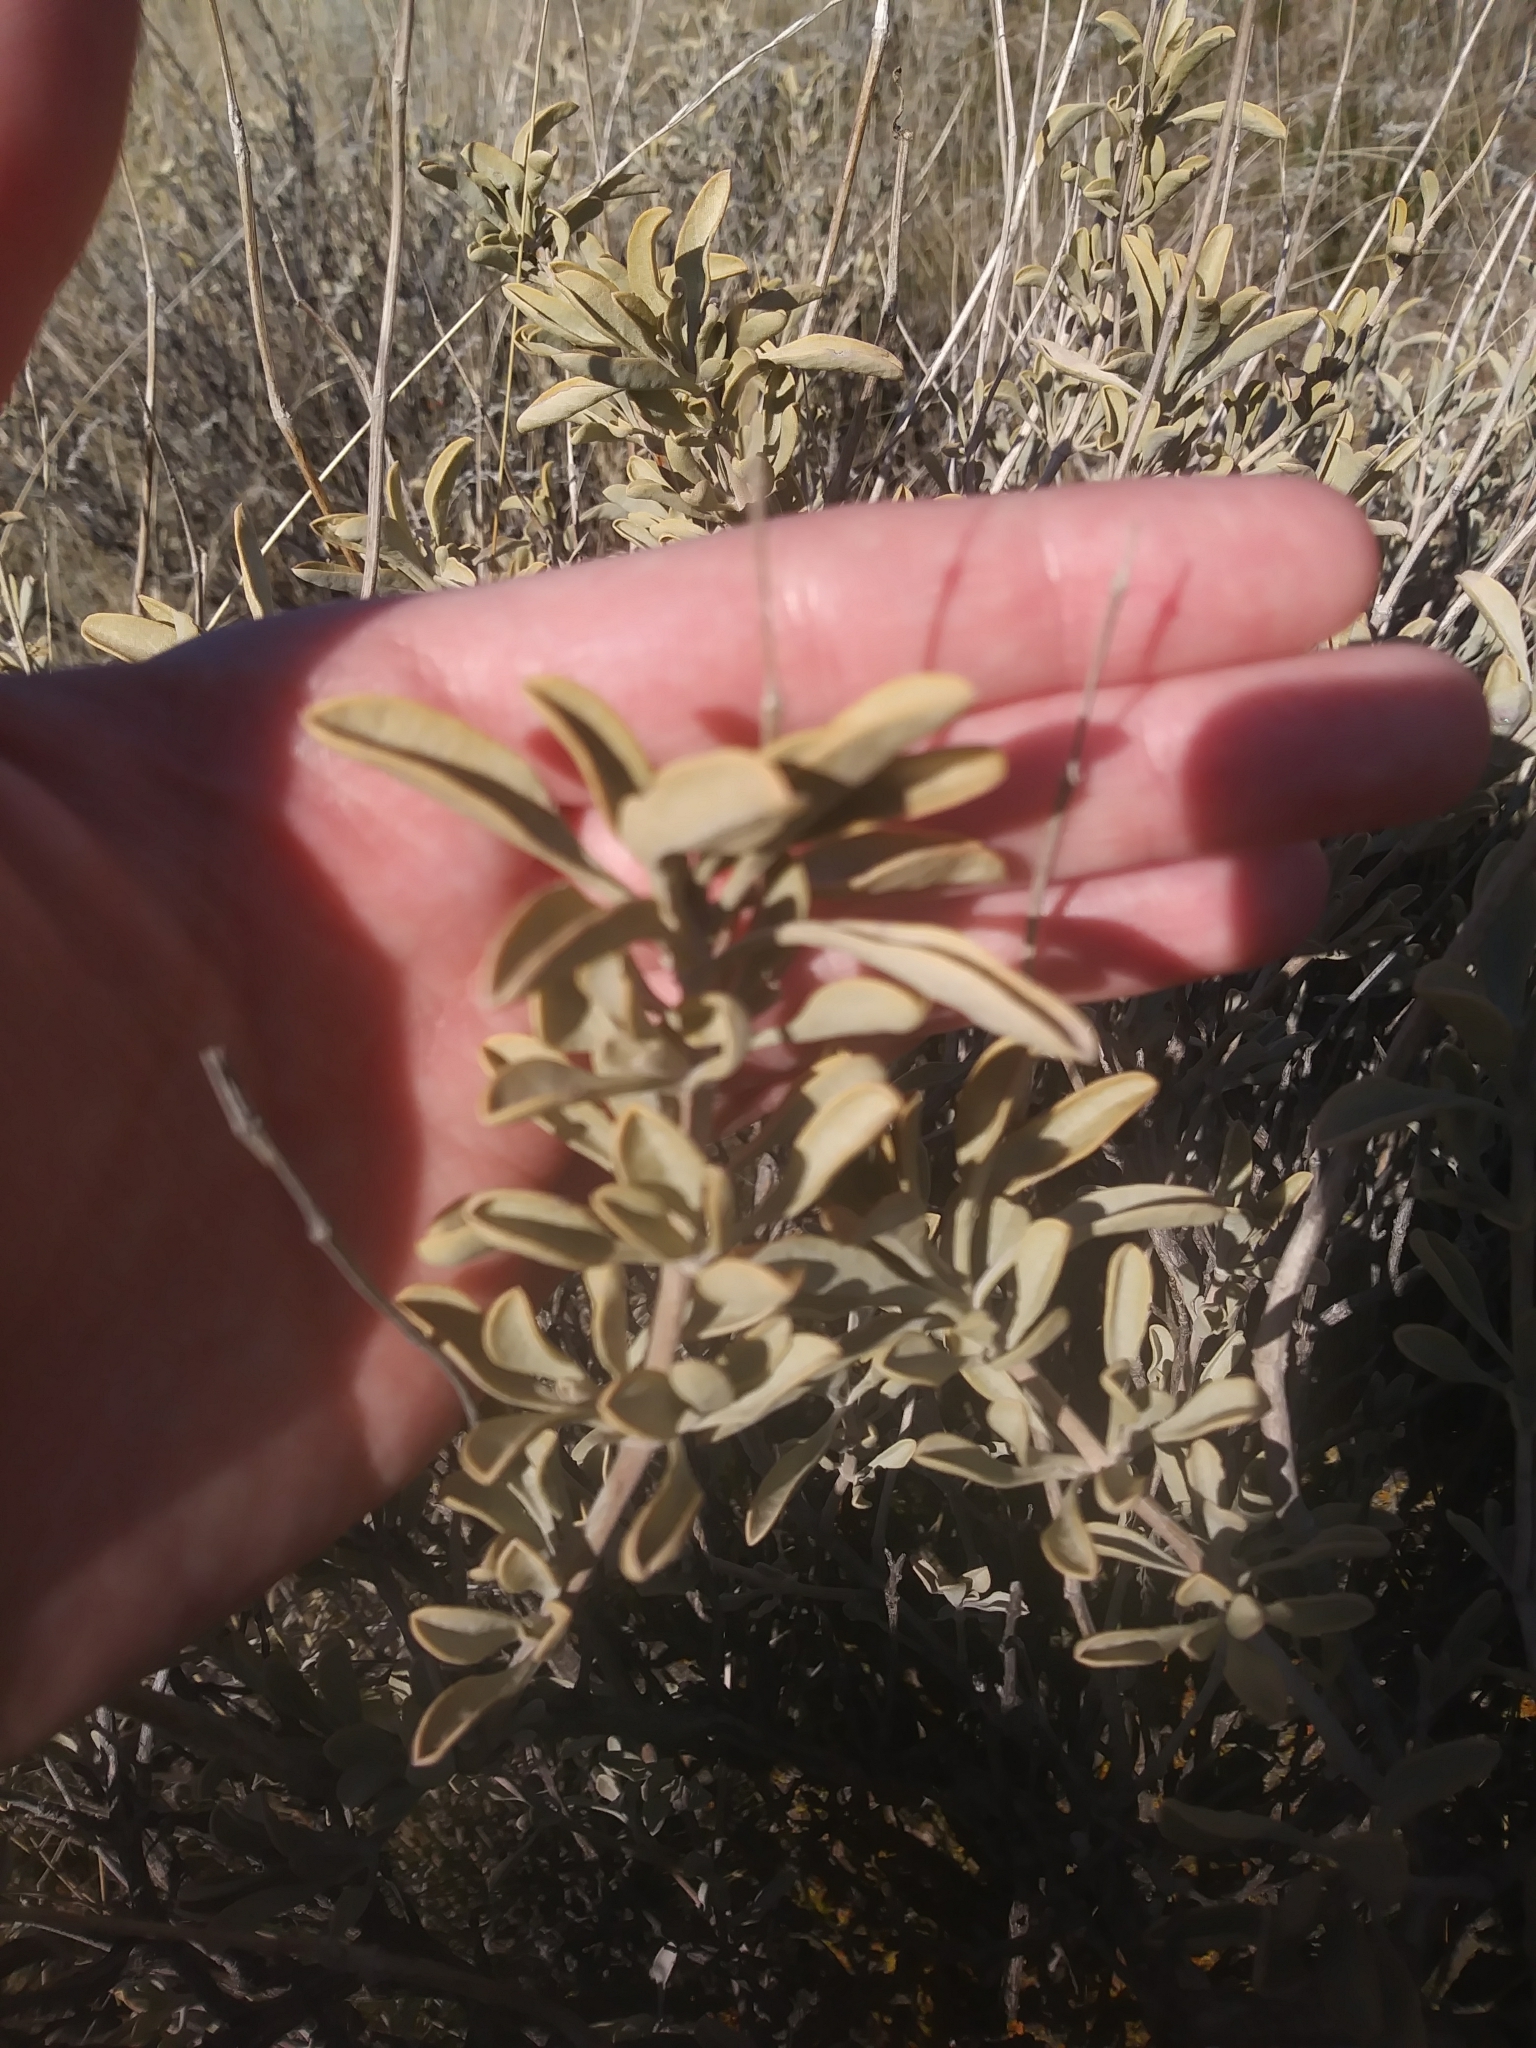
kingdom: Plantae
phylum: Tracheophyta
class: Magnoliopsida
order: Lamiales
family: Lamiaceae
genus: Salvia
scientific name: Salvia dorrii
